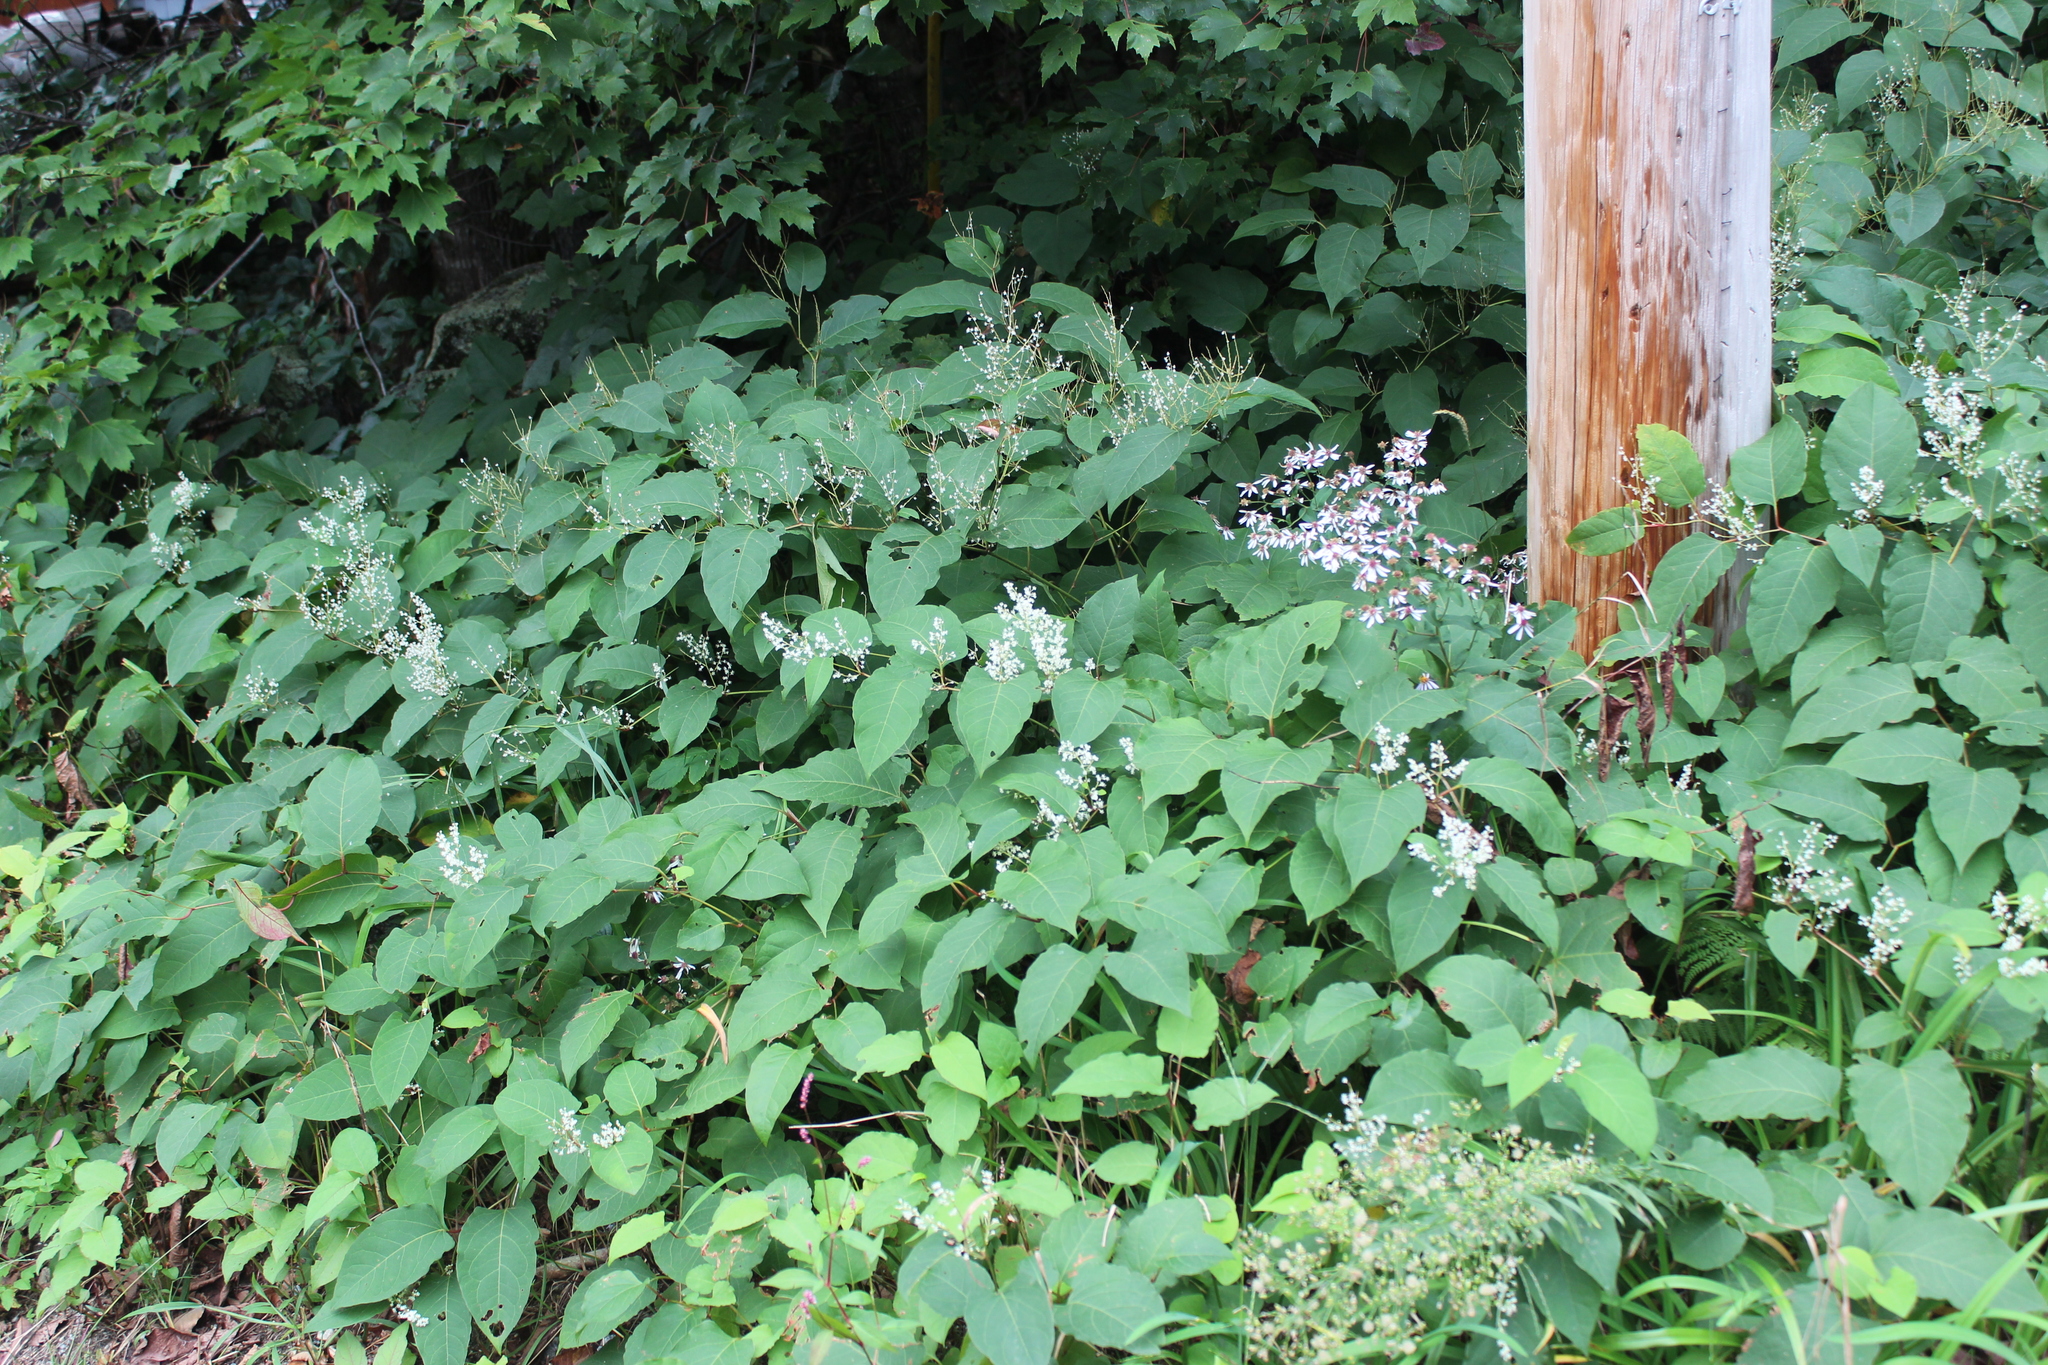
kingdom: Plantae
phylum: Tracheophyta
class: Magnoliopsida
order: Caryophyllales
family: Polygonaceae
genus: Reynoutria
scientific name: Reynoutria japonica
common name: Japanese knotweed
